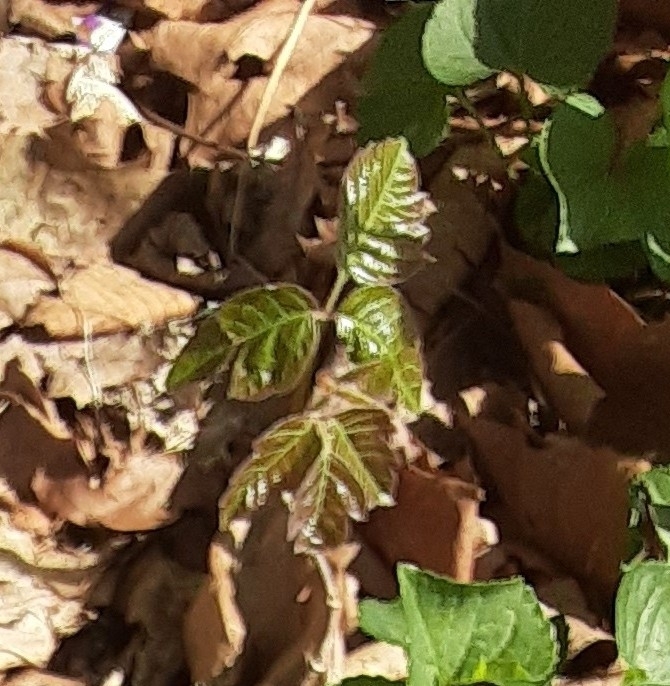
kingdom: Plantae
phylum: Tracheophyta
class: Magnoliopsida
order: Sapindales
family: Anacardiaceae
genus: Toxicodendron
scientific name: Toxicodendron radicans
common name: Poison ivy
